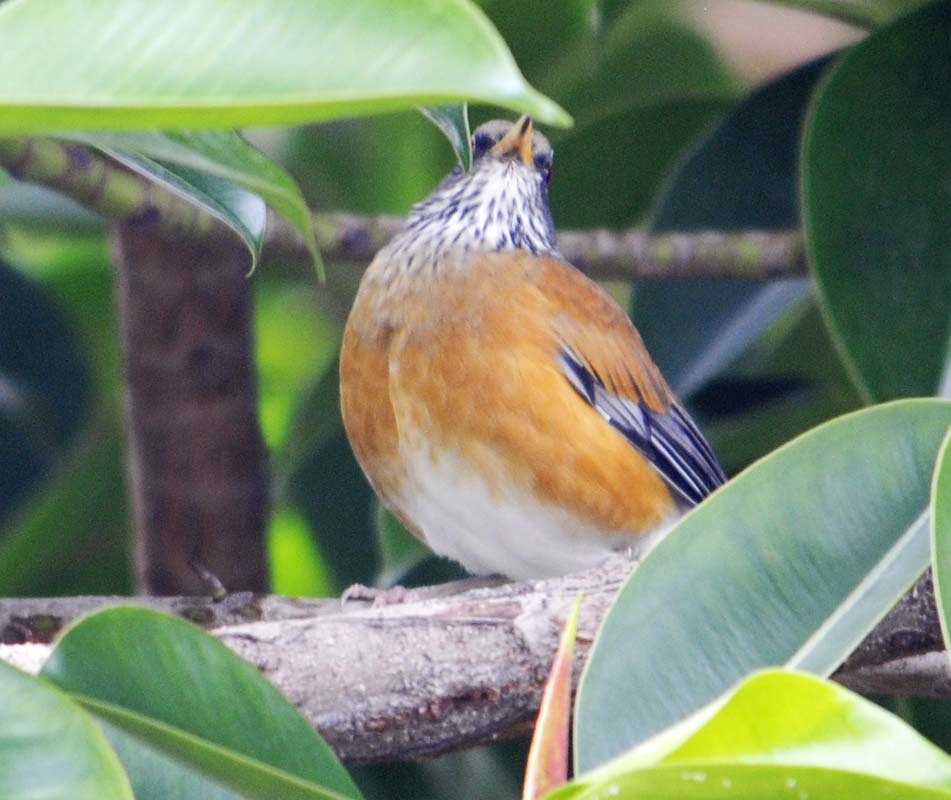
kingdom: Animalia
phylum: Chordata
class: Aves
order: Passeriformes
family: Turdidae
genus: Turdus
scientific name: Turdus rufopalliatus
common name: Rufous-backed robin
